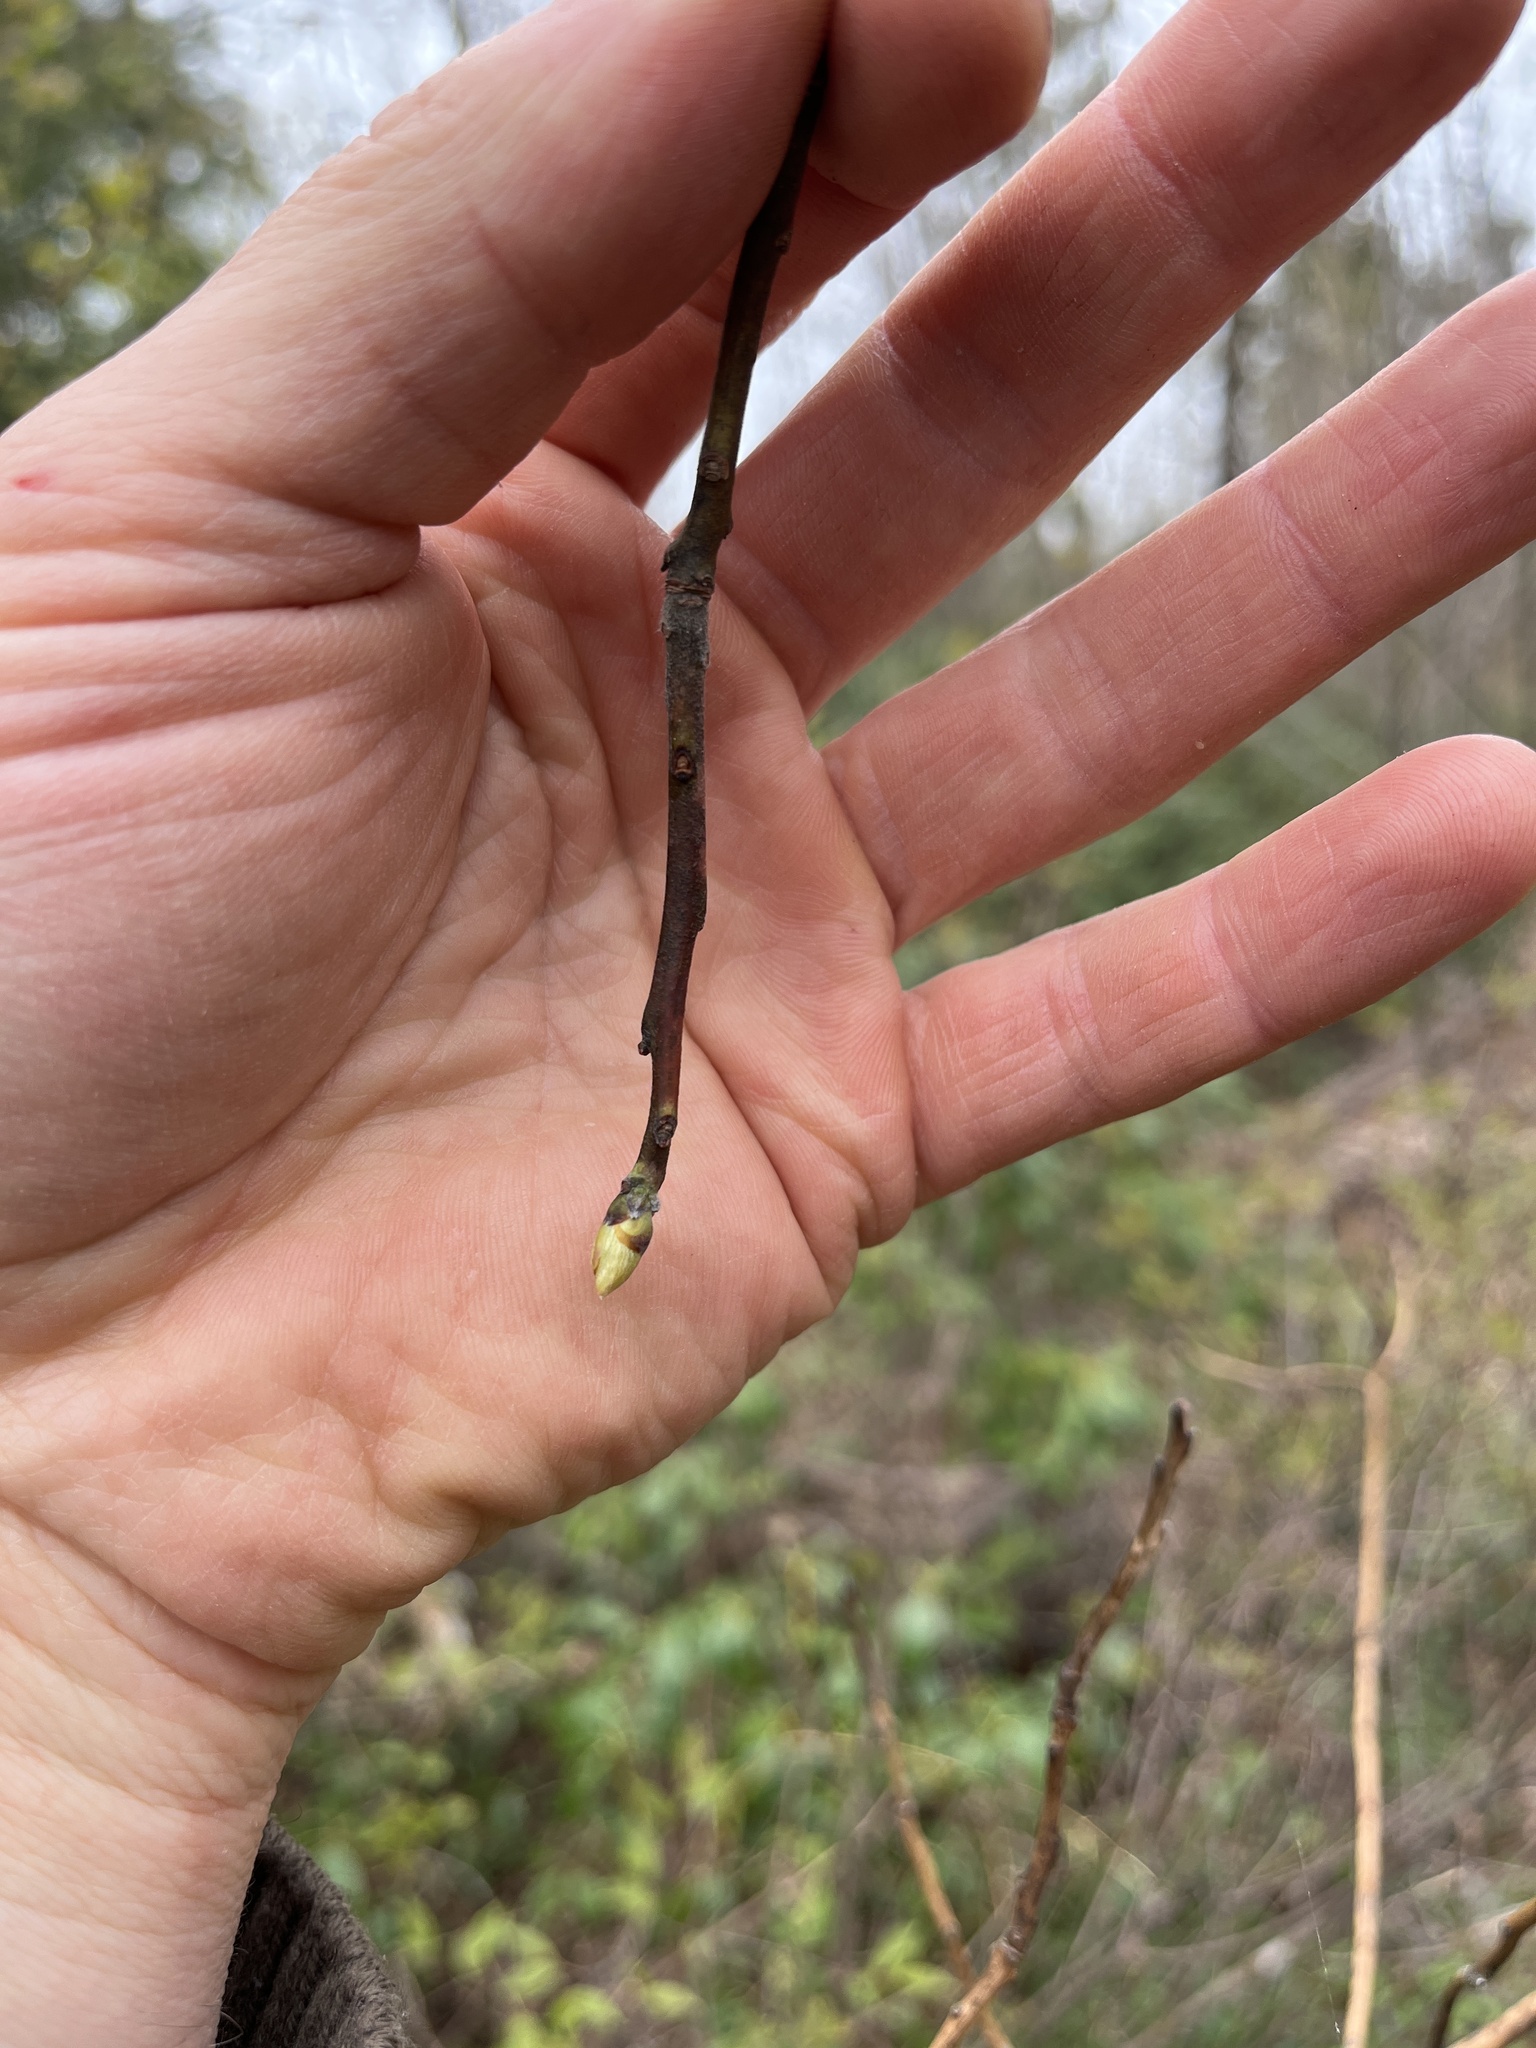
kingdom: Plantae
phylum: Tracheophyta
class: Magnoliopsida
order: Laurales
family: Lauraceae
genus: Sassafras
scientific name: Sassafras albidum
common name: Sassafras
